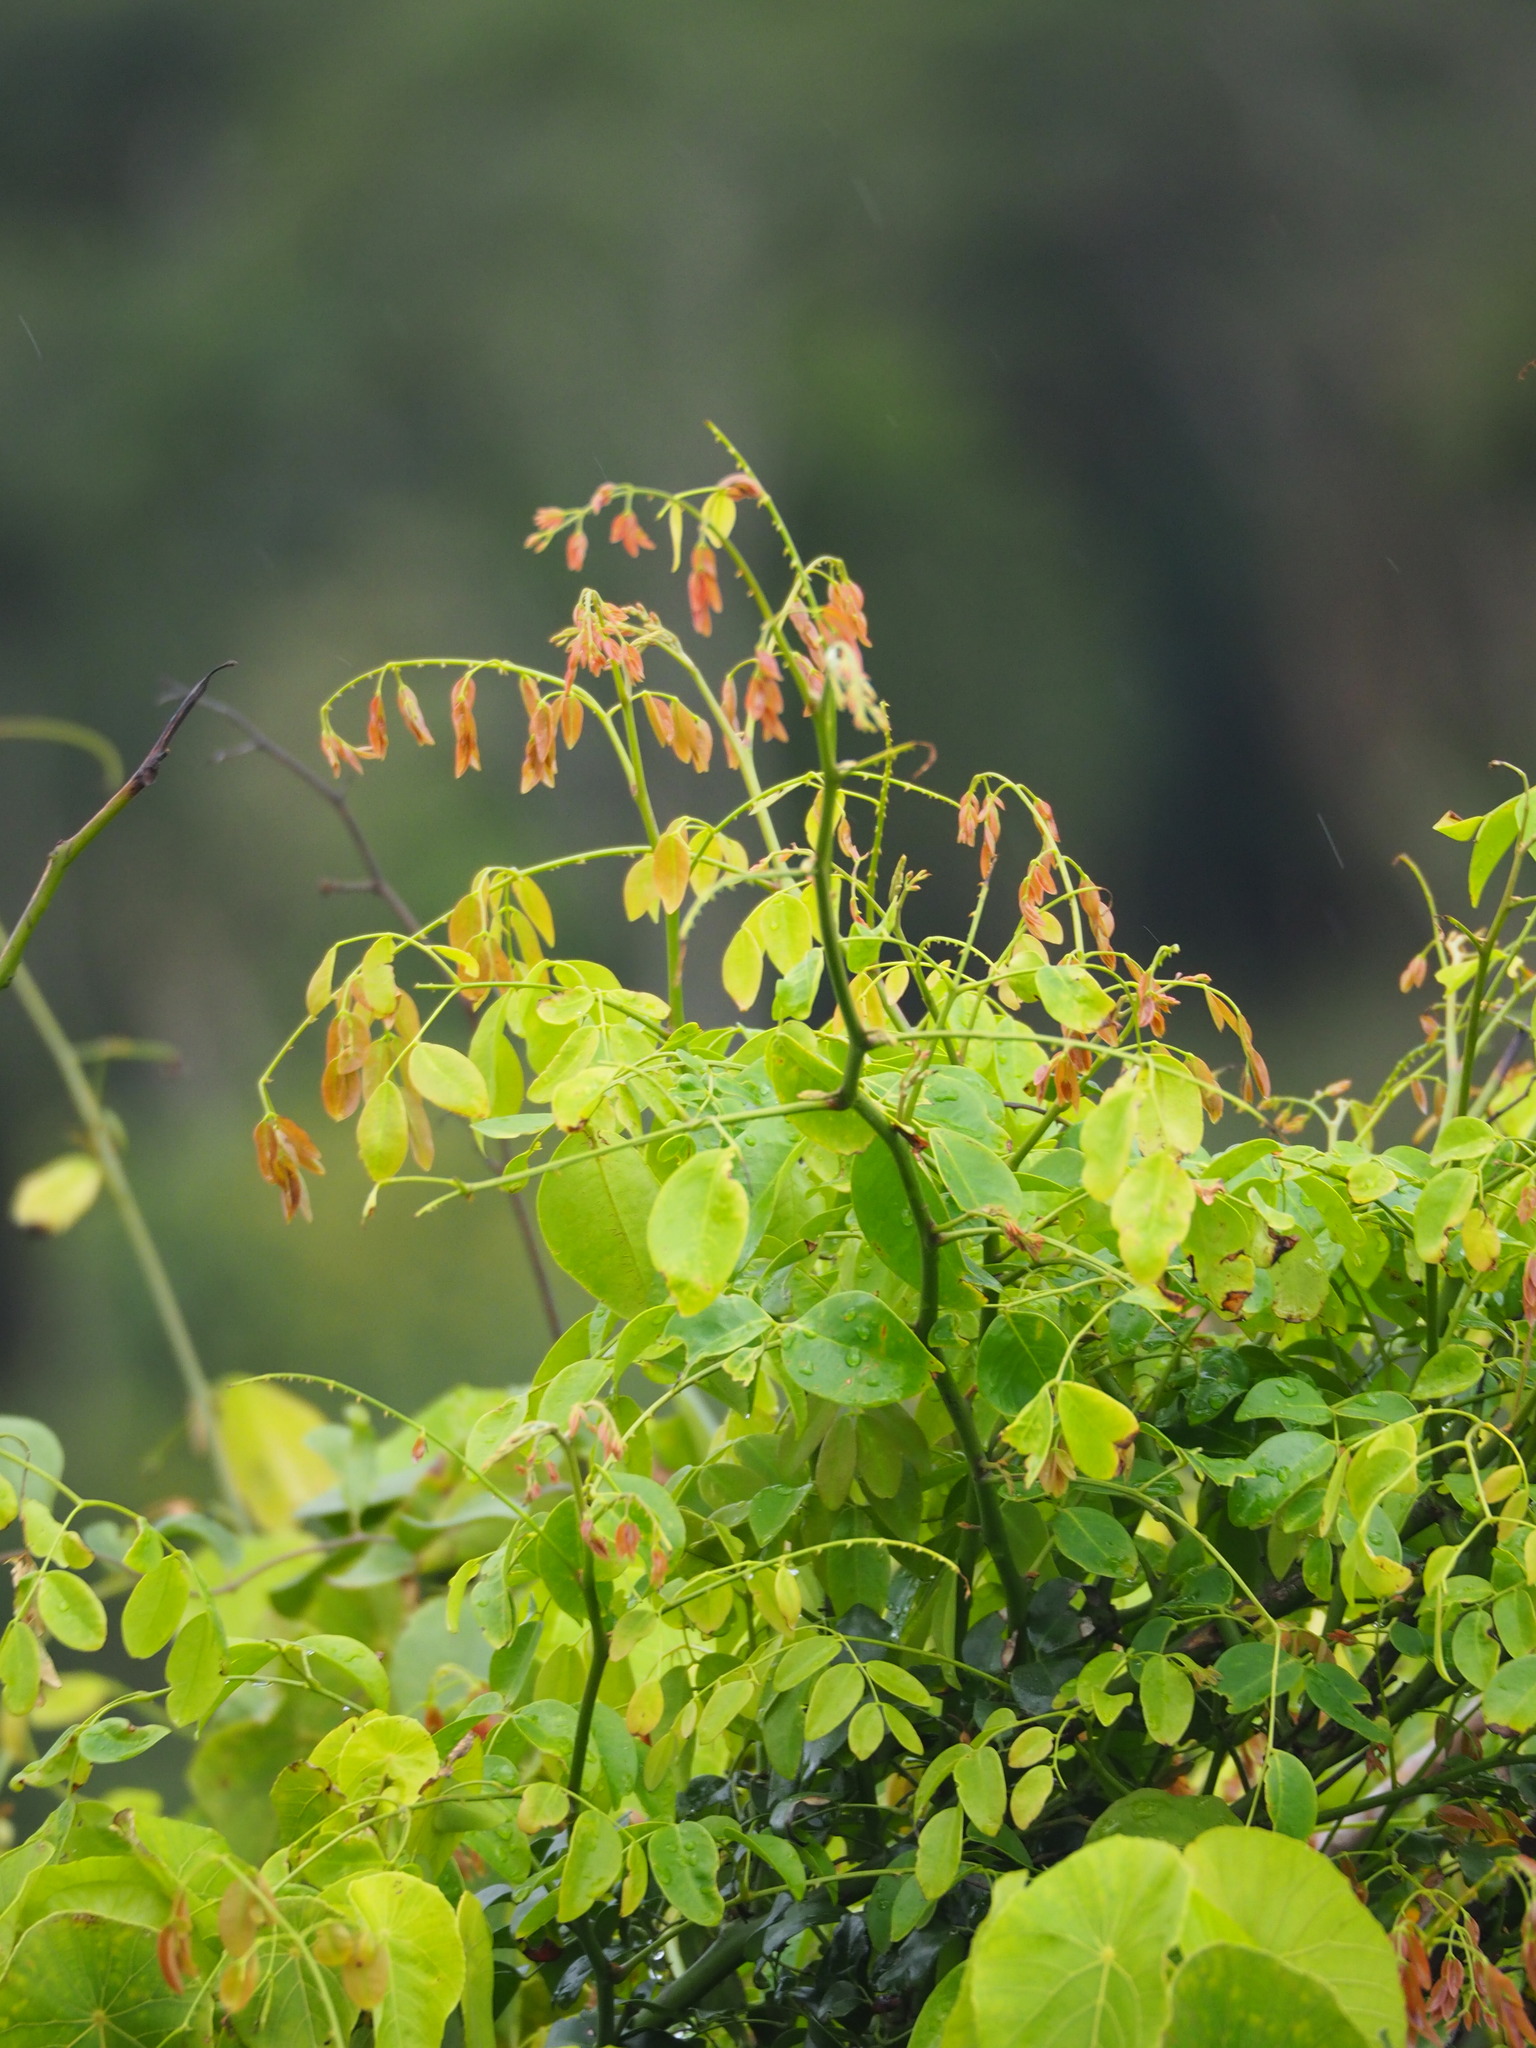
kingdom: Plantae
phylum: Tracheophyta
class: Magnoliopsida
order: Fabales
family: Fabaceae
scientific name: Fabaceae
